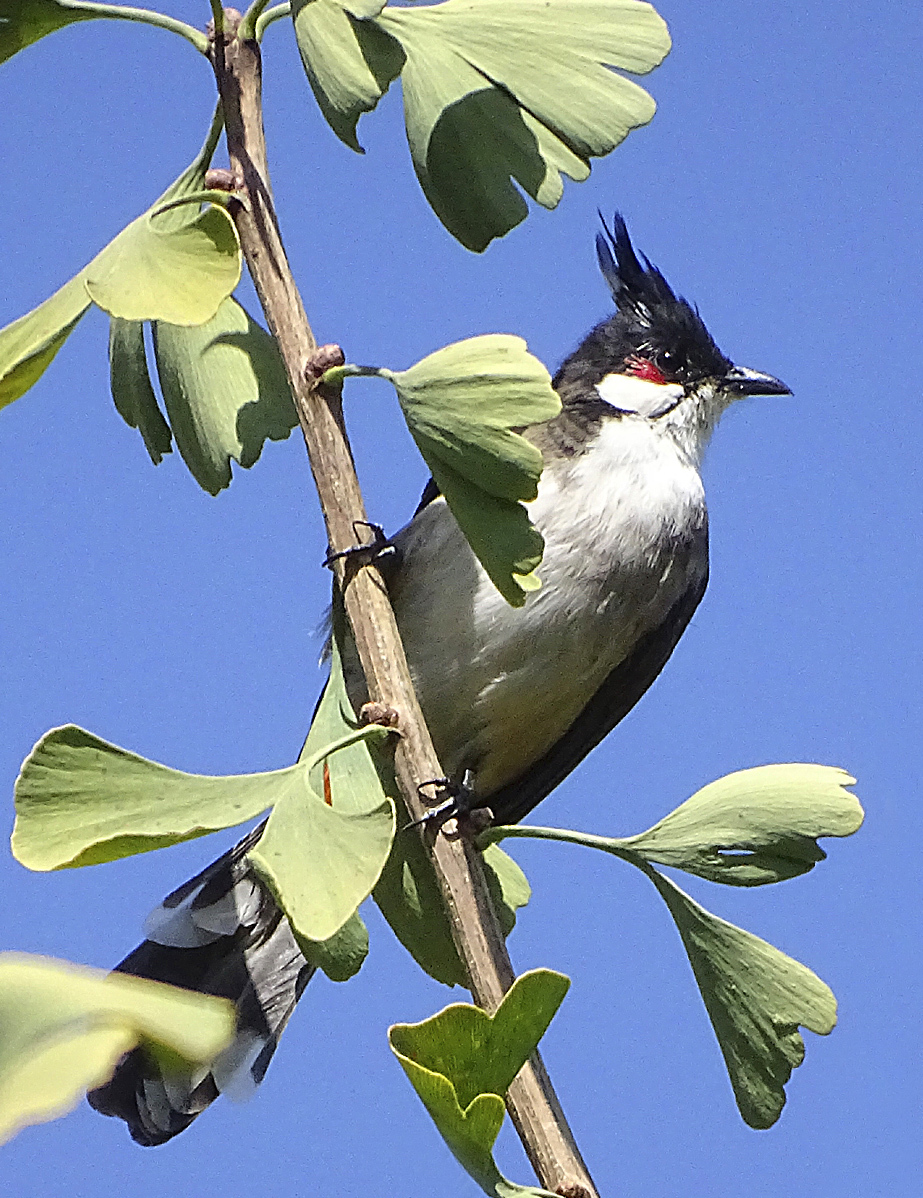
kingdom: Animalia
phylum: Chordata
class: Aves
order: Passeriformes
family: Pycnonotidae
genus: Pycnonotus
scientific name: Pycnonotus jocosus
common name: Red-whiskered bulbul
